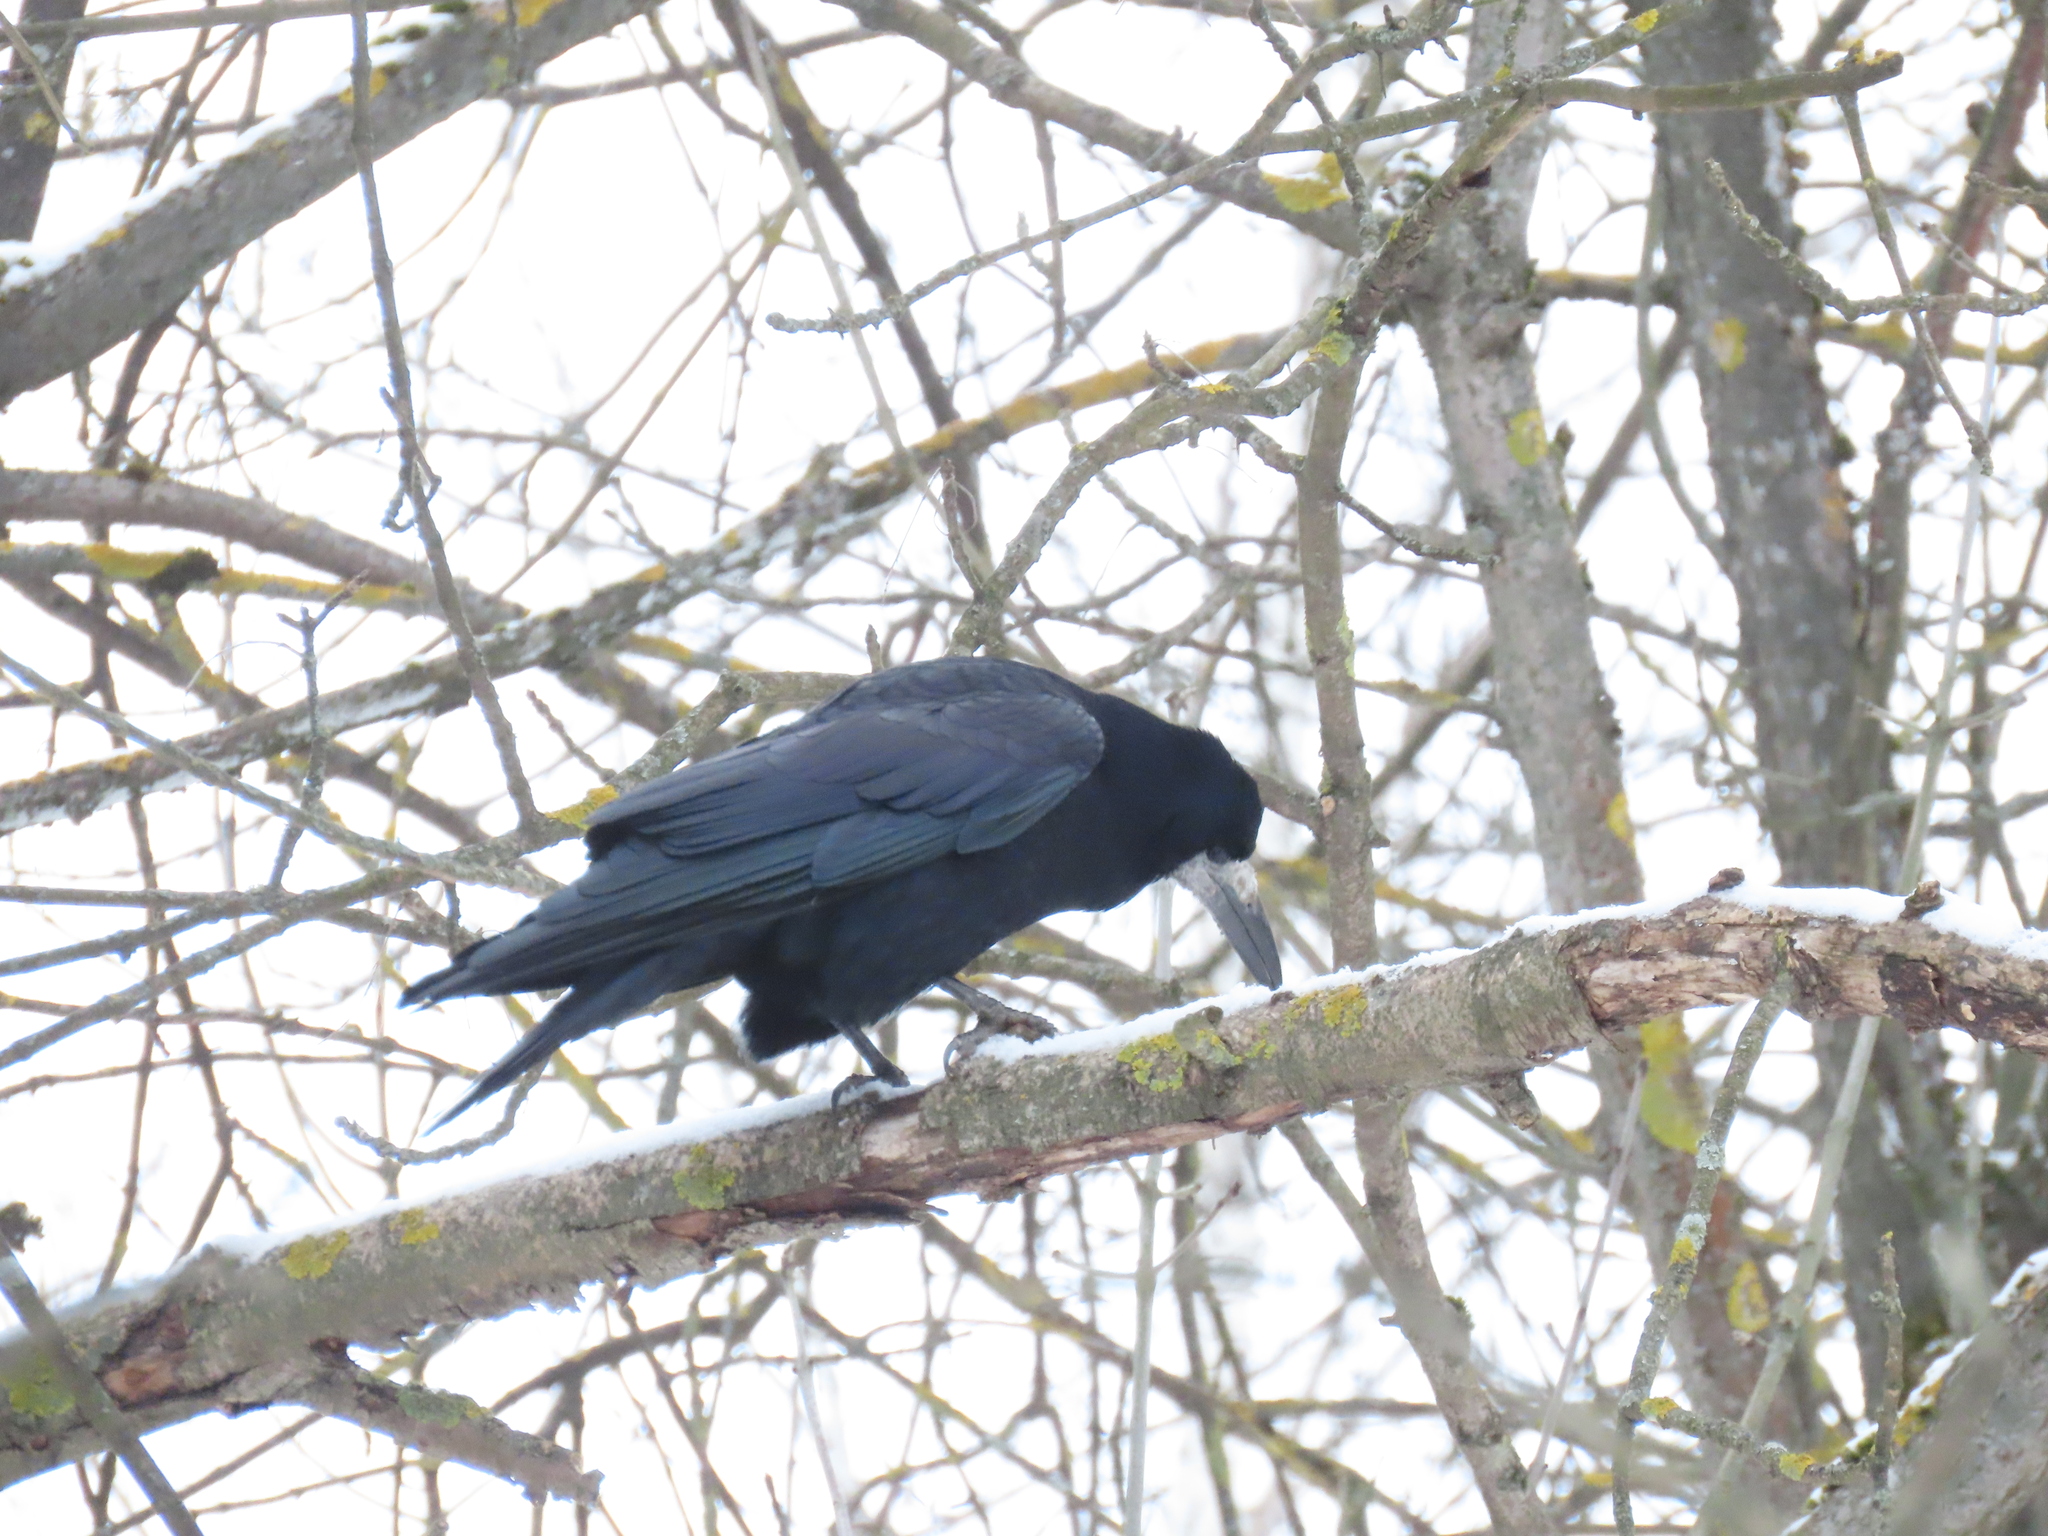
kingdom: Animalia
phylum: Chordata
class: Aves
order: Passeriformes
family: Corvidae
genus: Corvus
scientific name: Corvus frugilegus
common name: Rook
